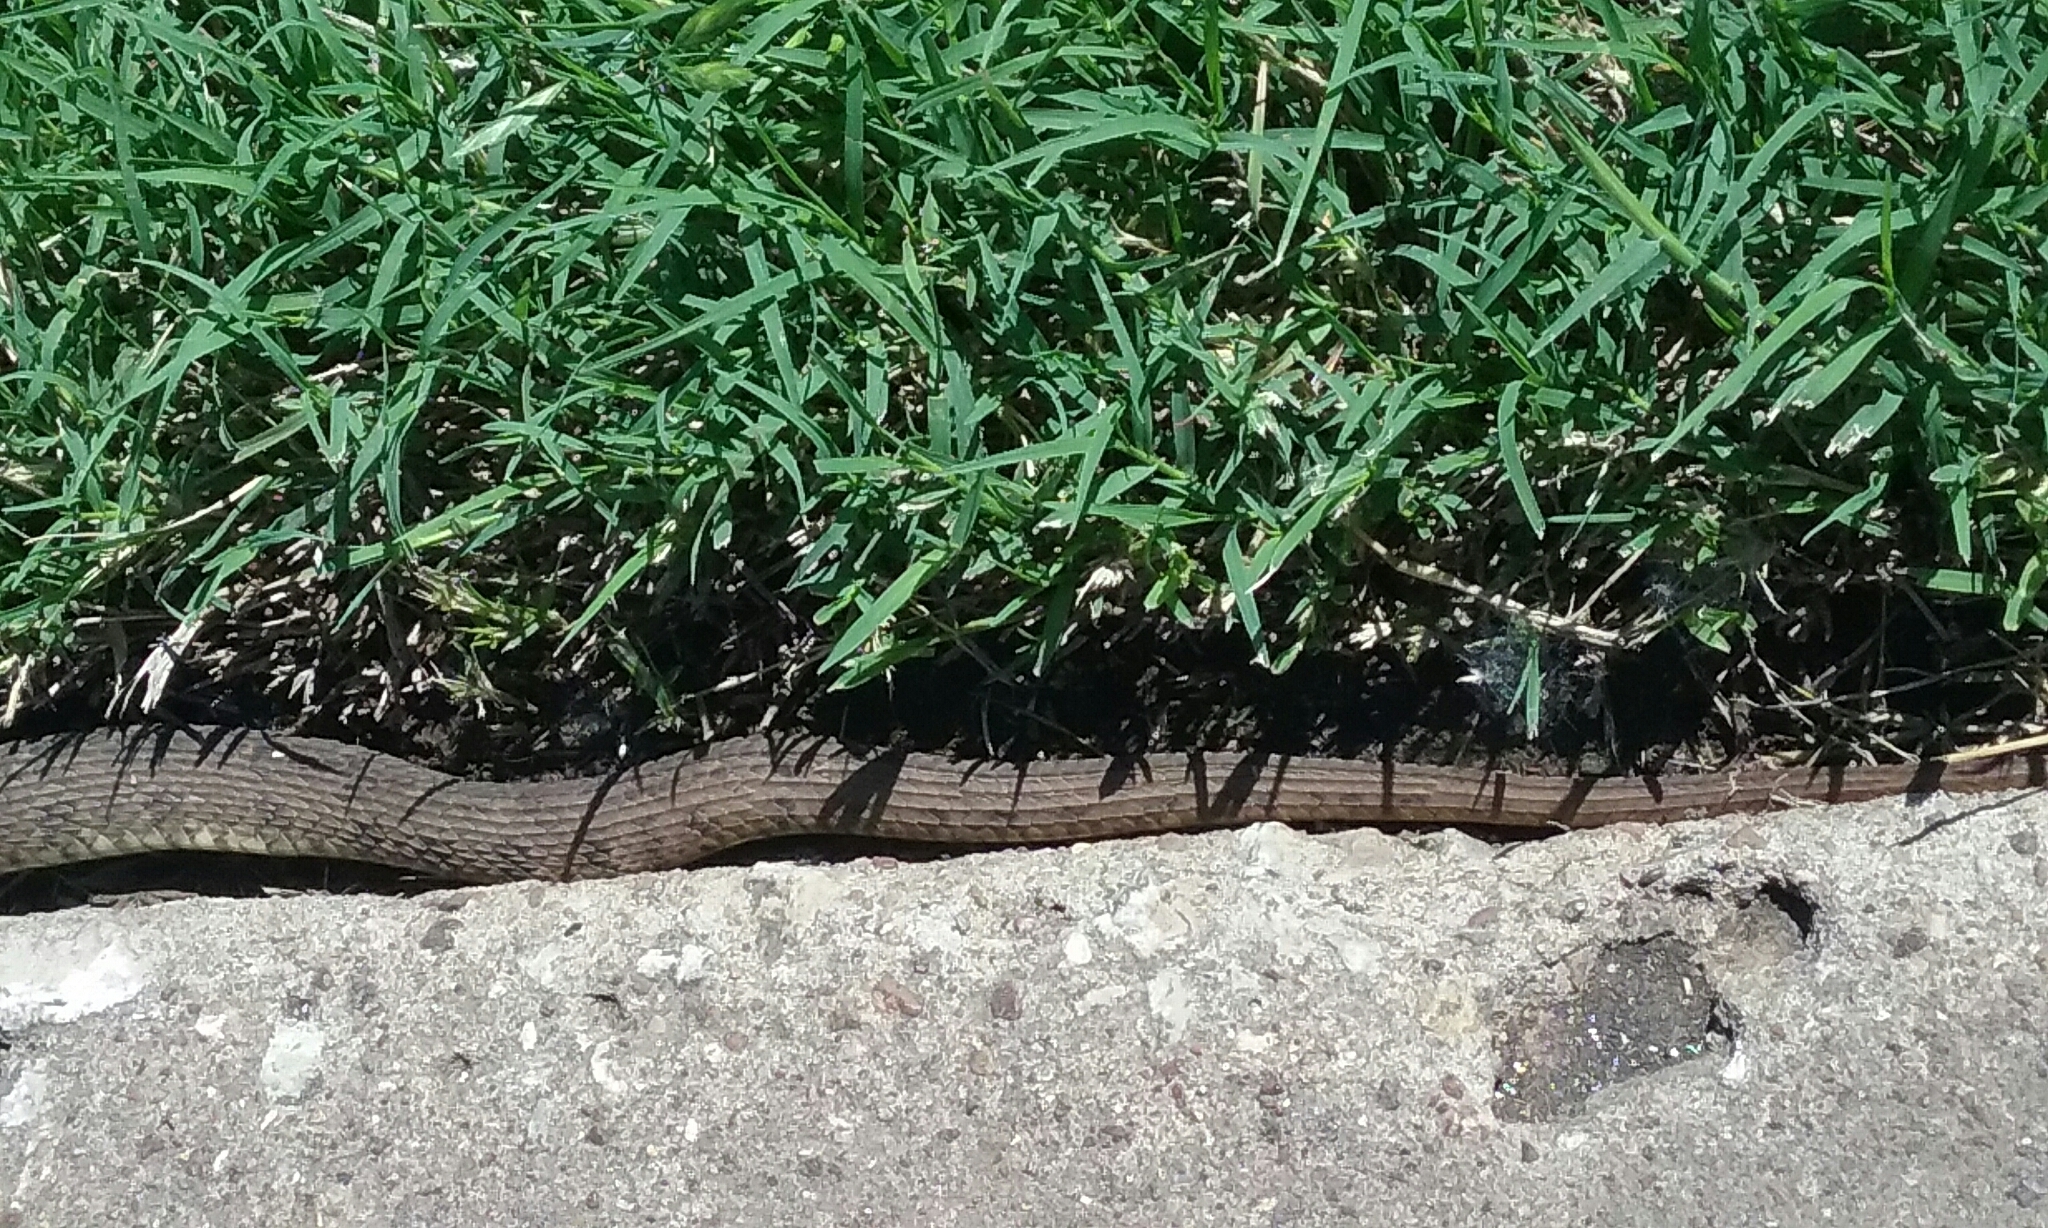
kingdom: Animalia
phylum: Chordata
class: Squamata
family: Colubridae
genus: Nerodia
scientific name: Nerodia erythrogaster
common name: Plainbelly water snake
